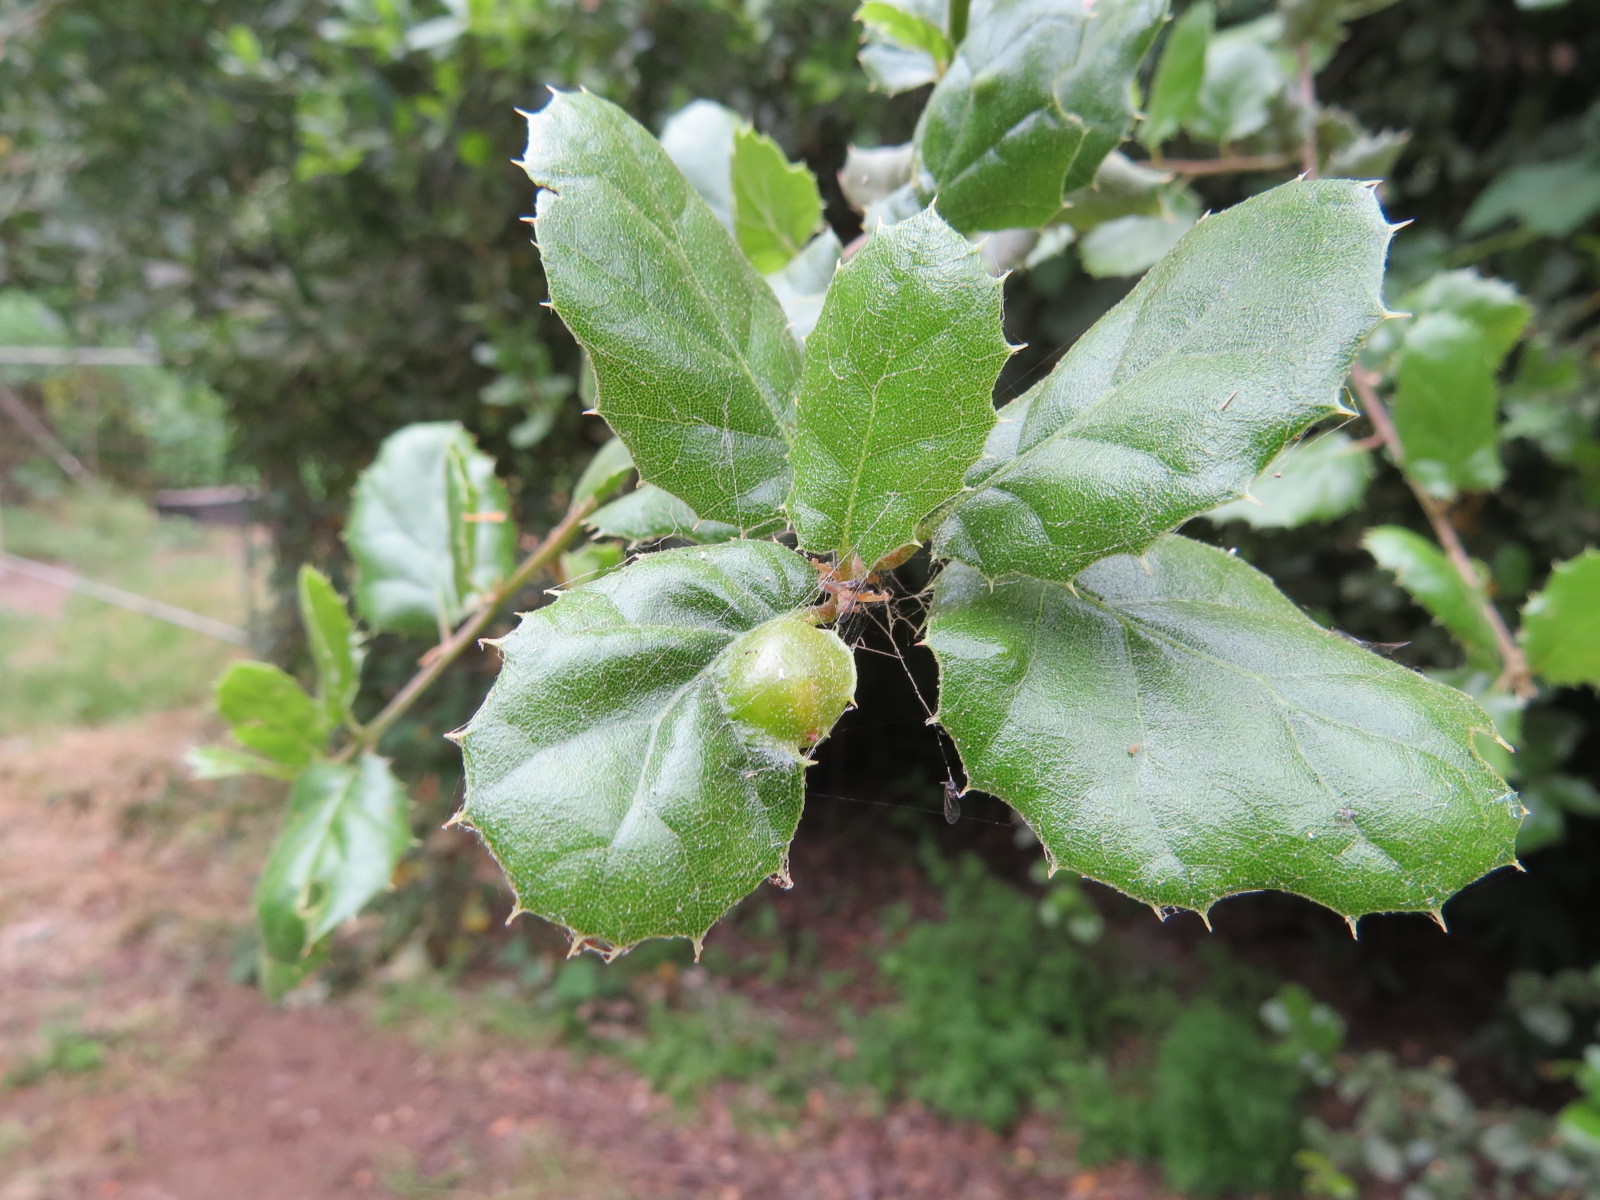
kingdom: Animalia
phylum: Arthropoda
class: Insecta
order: Hymenoptera
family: Cynipidae
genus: Callirhytis
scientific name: Callirhytis
